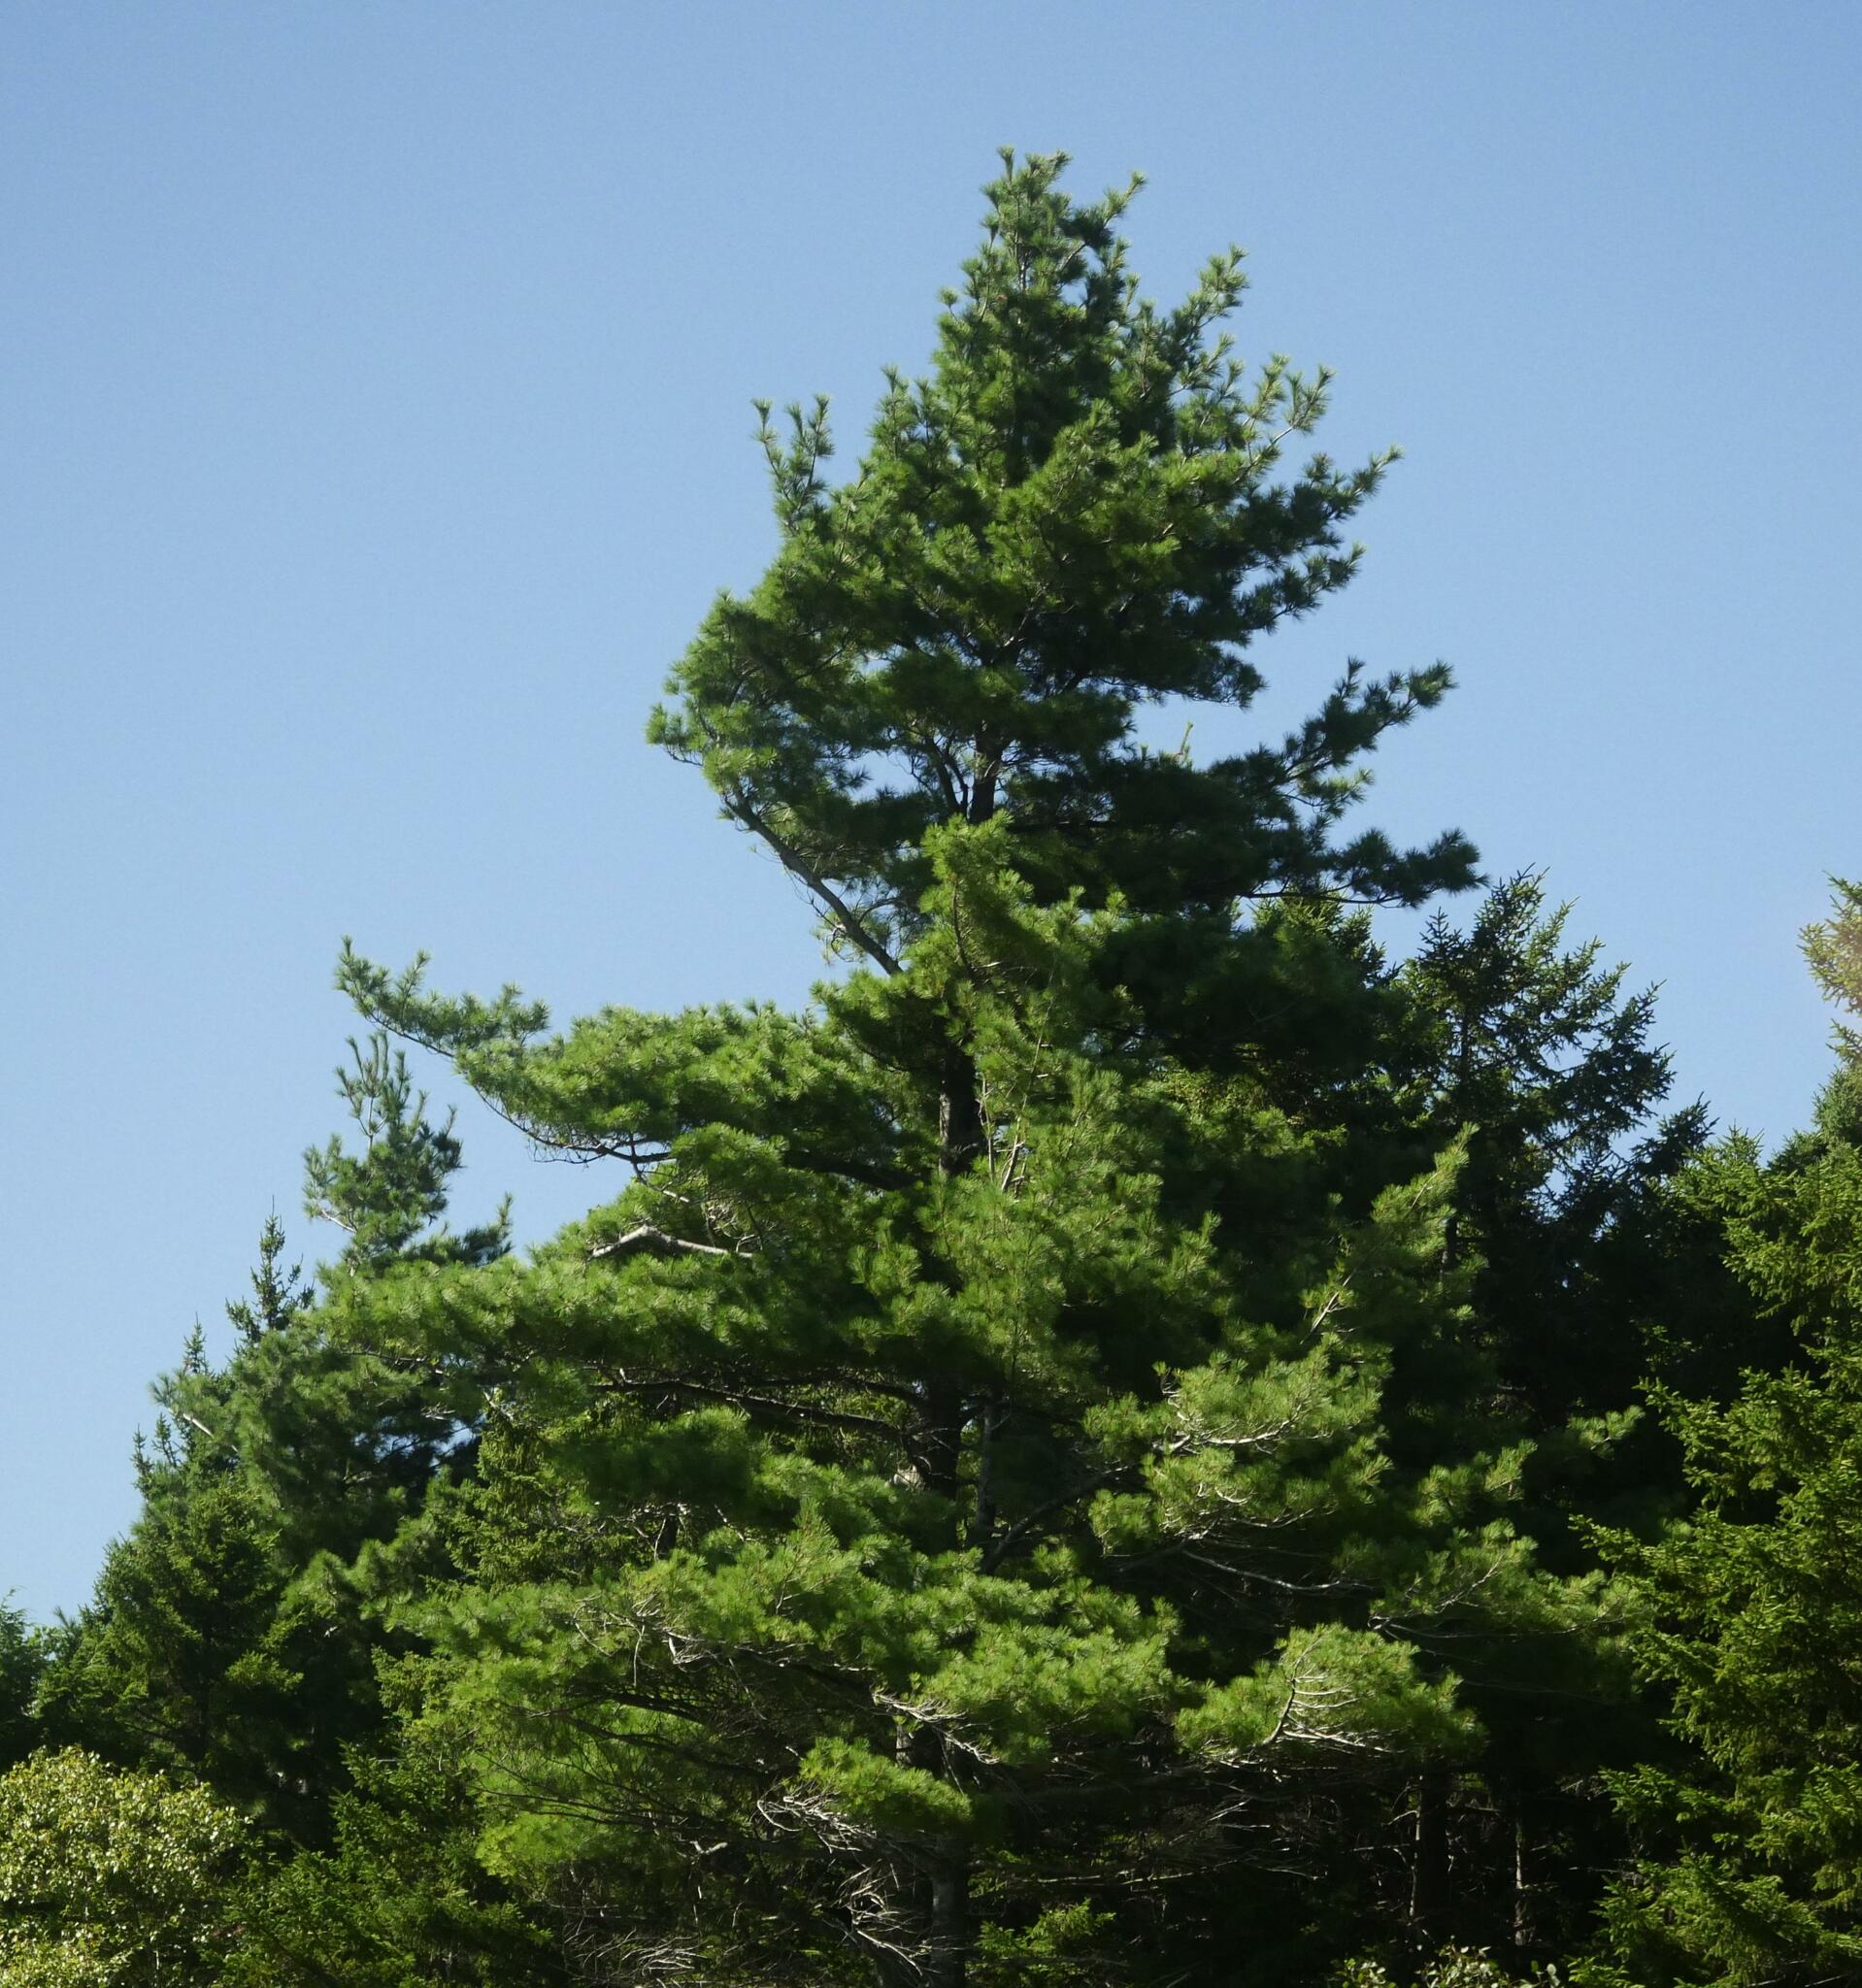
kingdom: Plantae
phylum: Tracheophyta
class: Pinopsida
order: Pinales
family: Pinaceae
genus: Pinus
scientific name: Pinus strobus
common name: Weymouth pine
